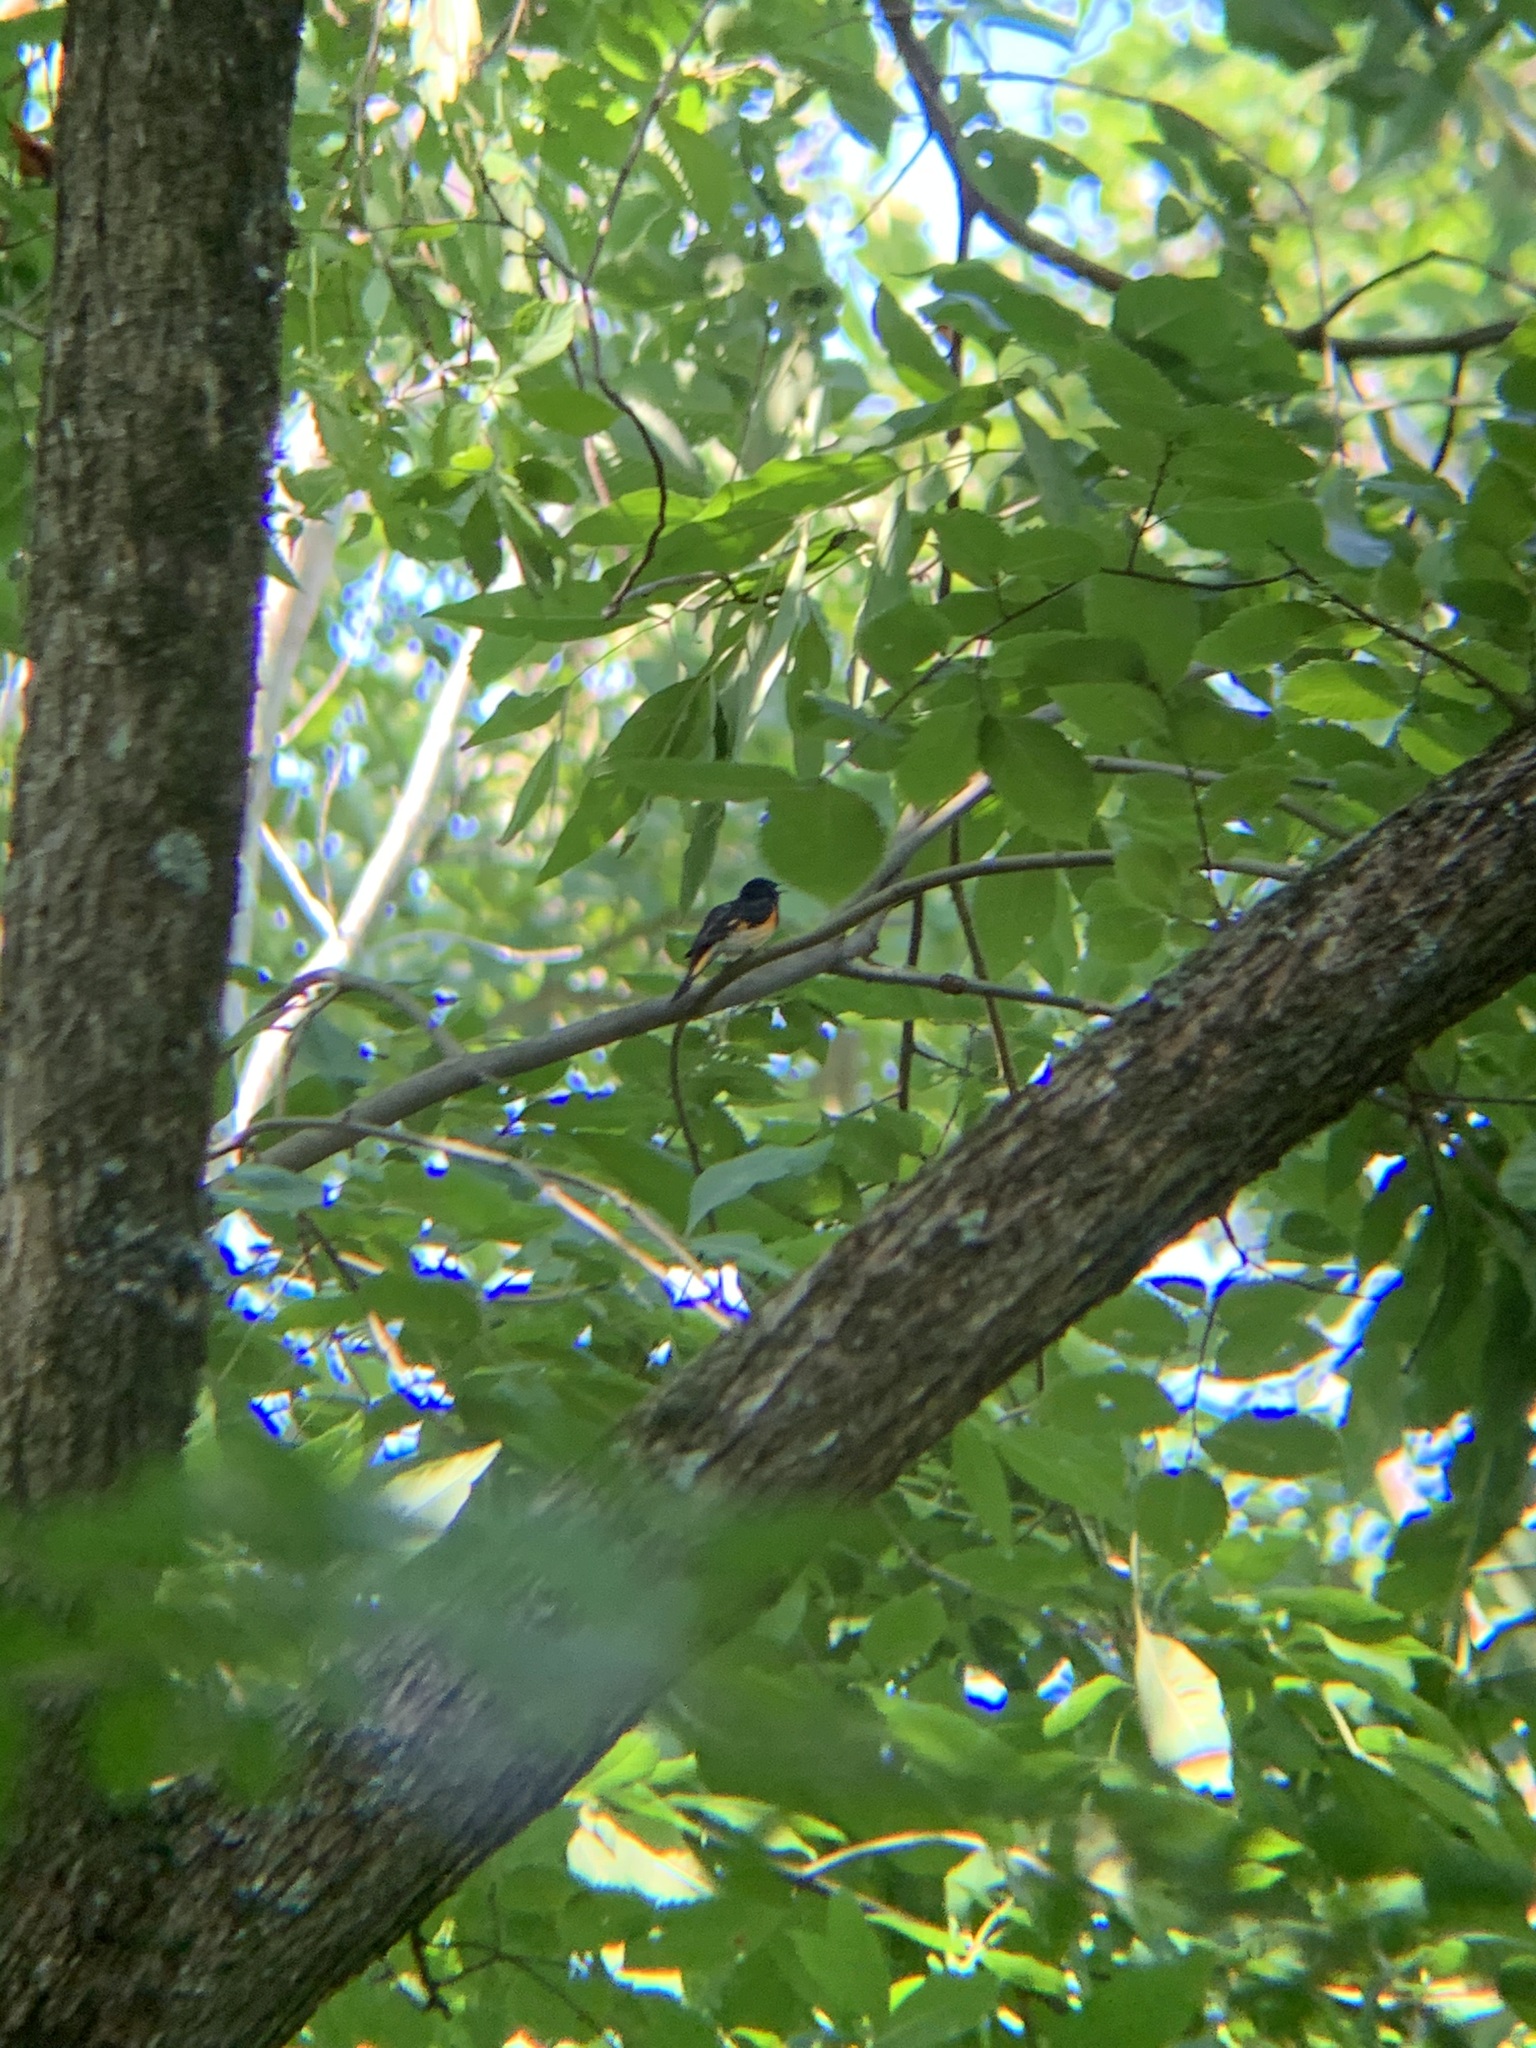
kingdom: Animalia
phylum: Chordata
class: Aves
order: Passeriformes
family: Parulidae
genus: Setophaga
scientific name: Setophaga ruticilla
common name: American redstart
